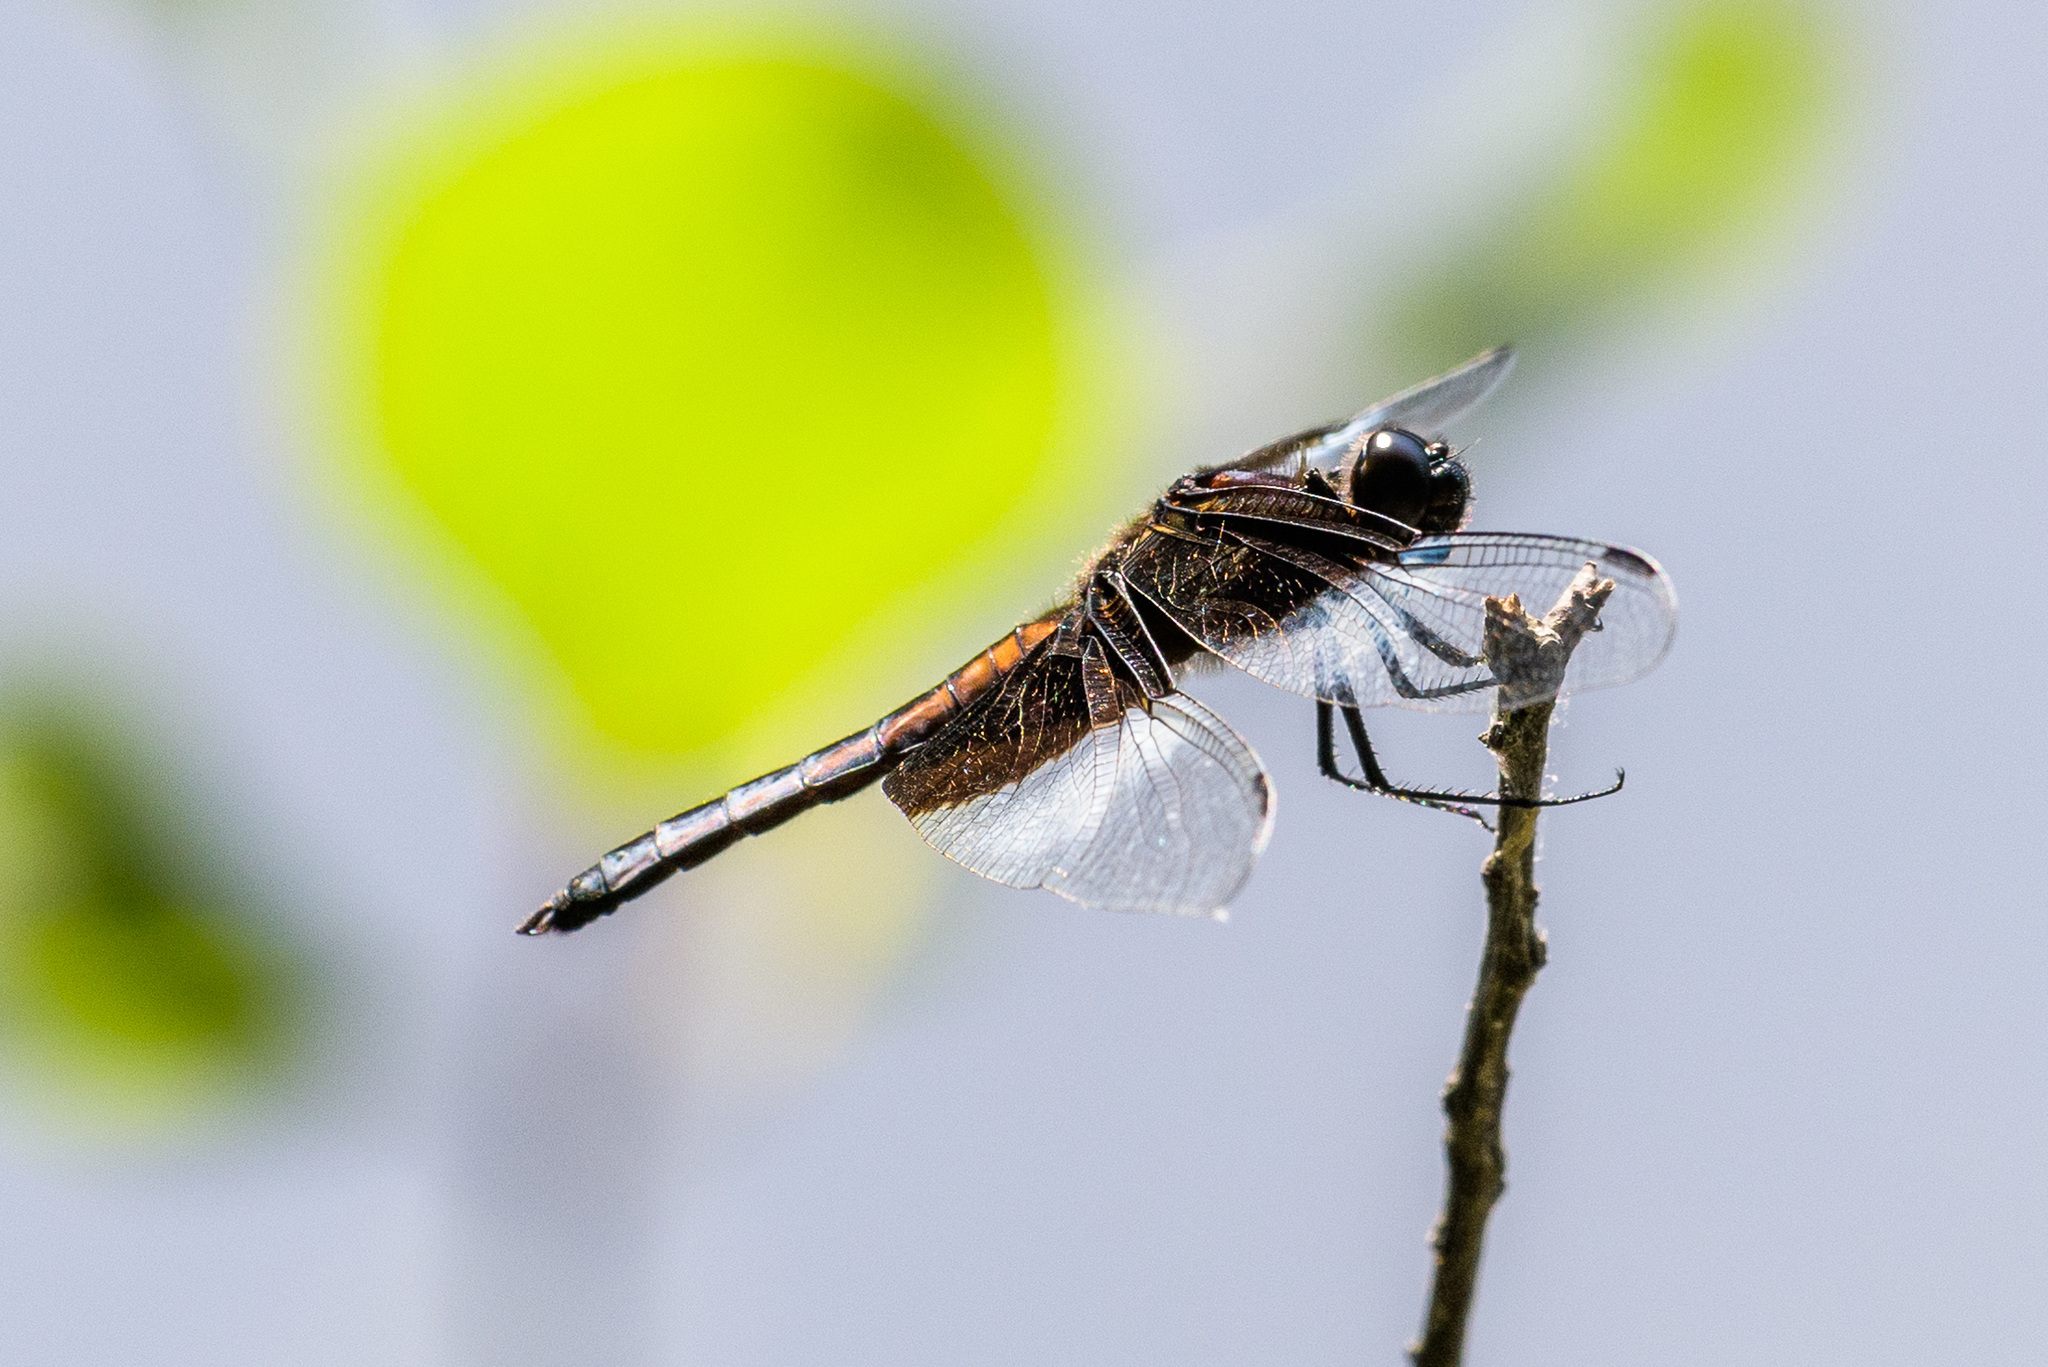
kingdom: Animalia
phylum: Arthropoda
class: Insecta
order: Odonata
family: Libellulidae
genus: Libellula
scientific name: Libellula luctuosa
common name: Widow skimmer
